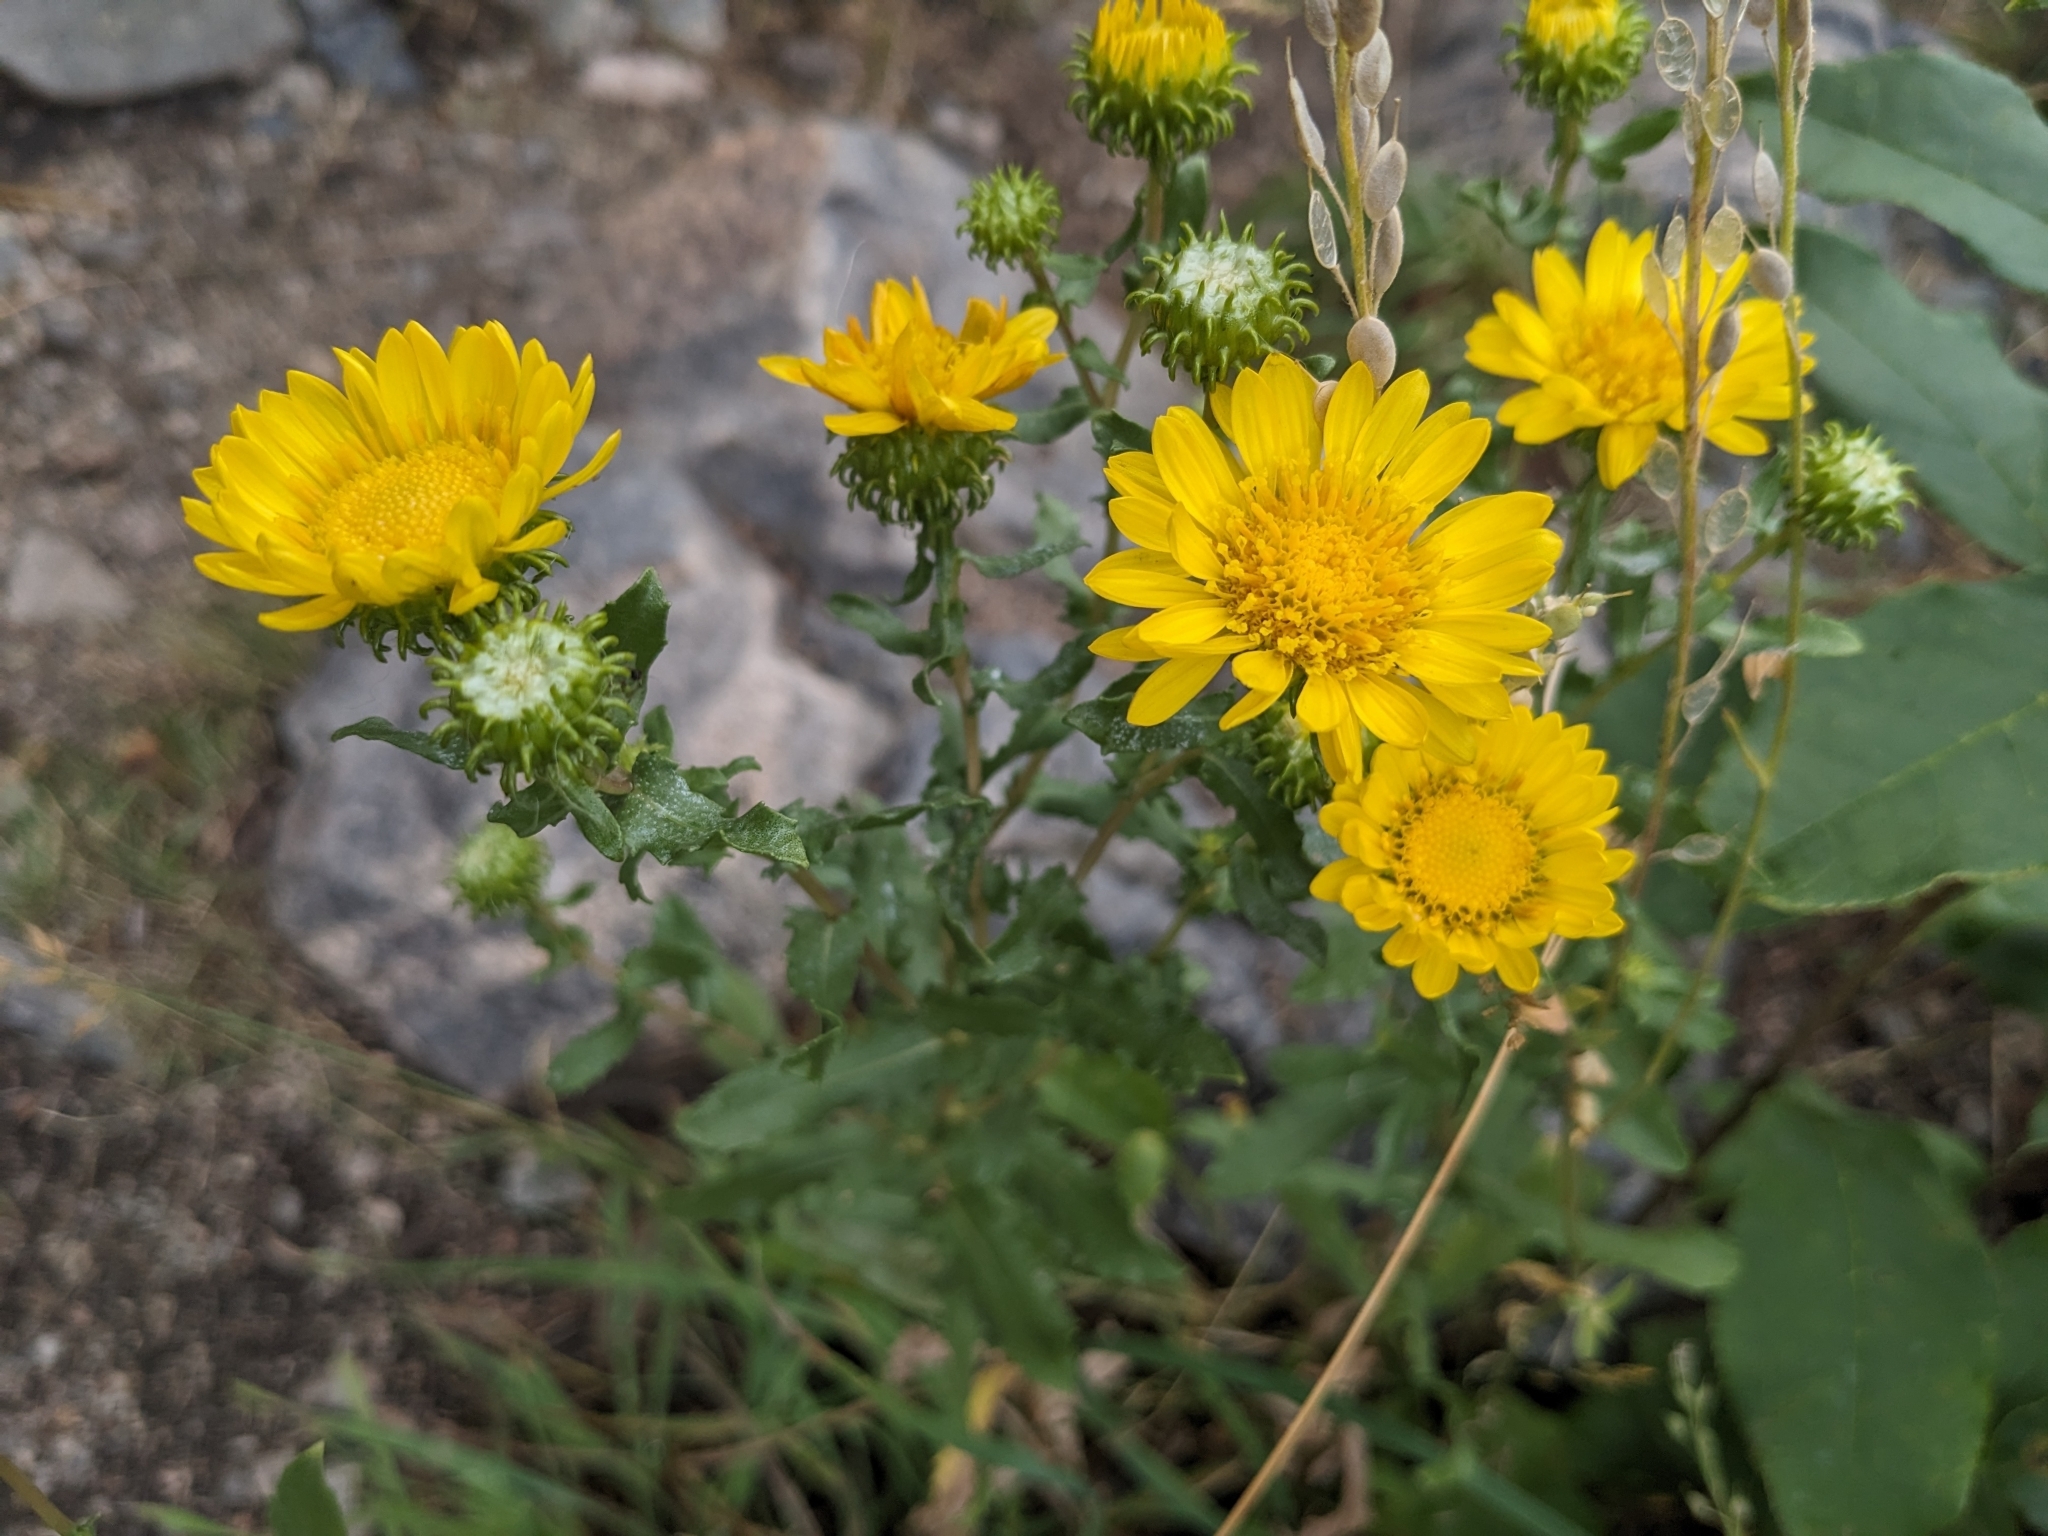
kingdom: Plantae
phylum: Tracheophyta
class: Magnoliopsida
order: Asterales
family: Asteraceae
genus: Grindelia
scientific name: Grindelia squarrosa
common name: Curly-cup gumweed
